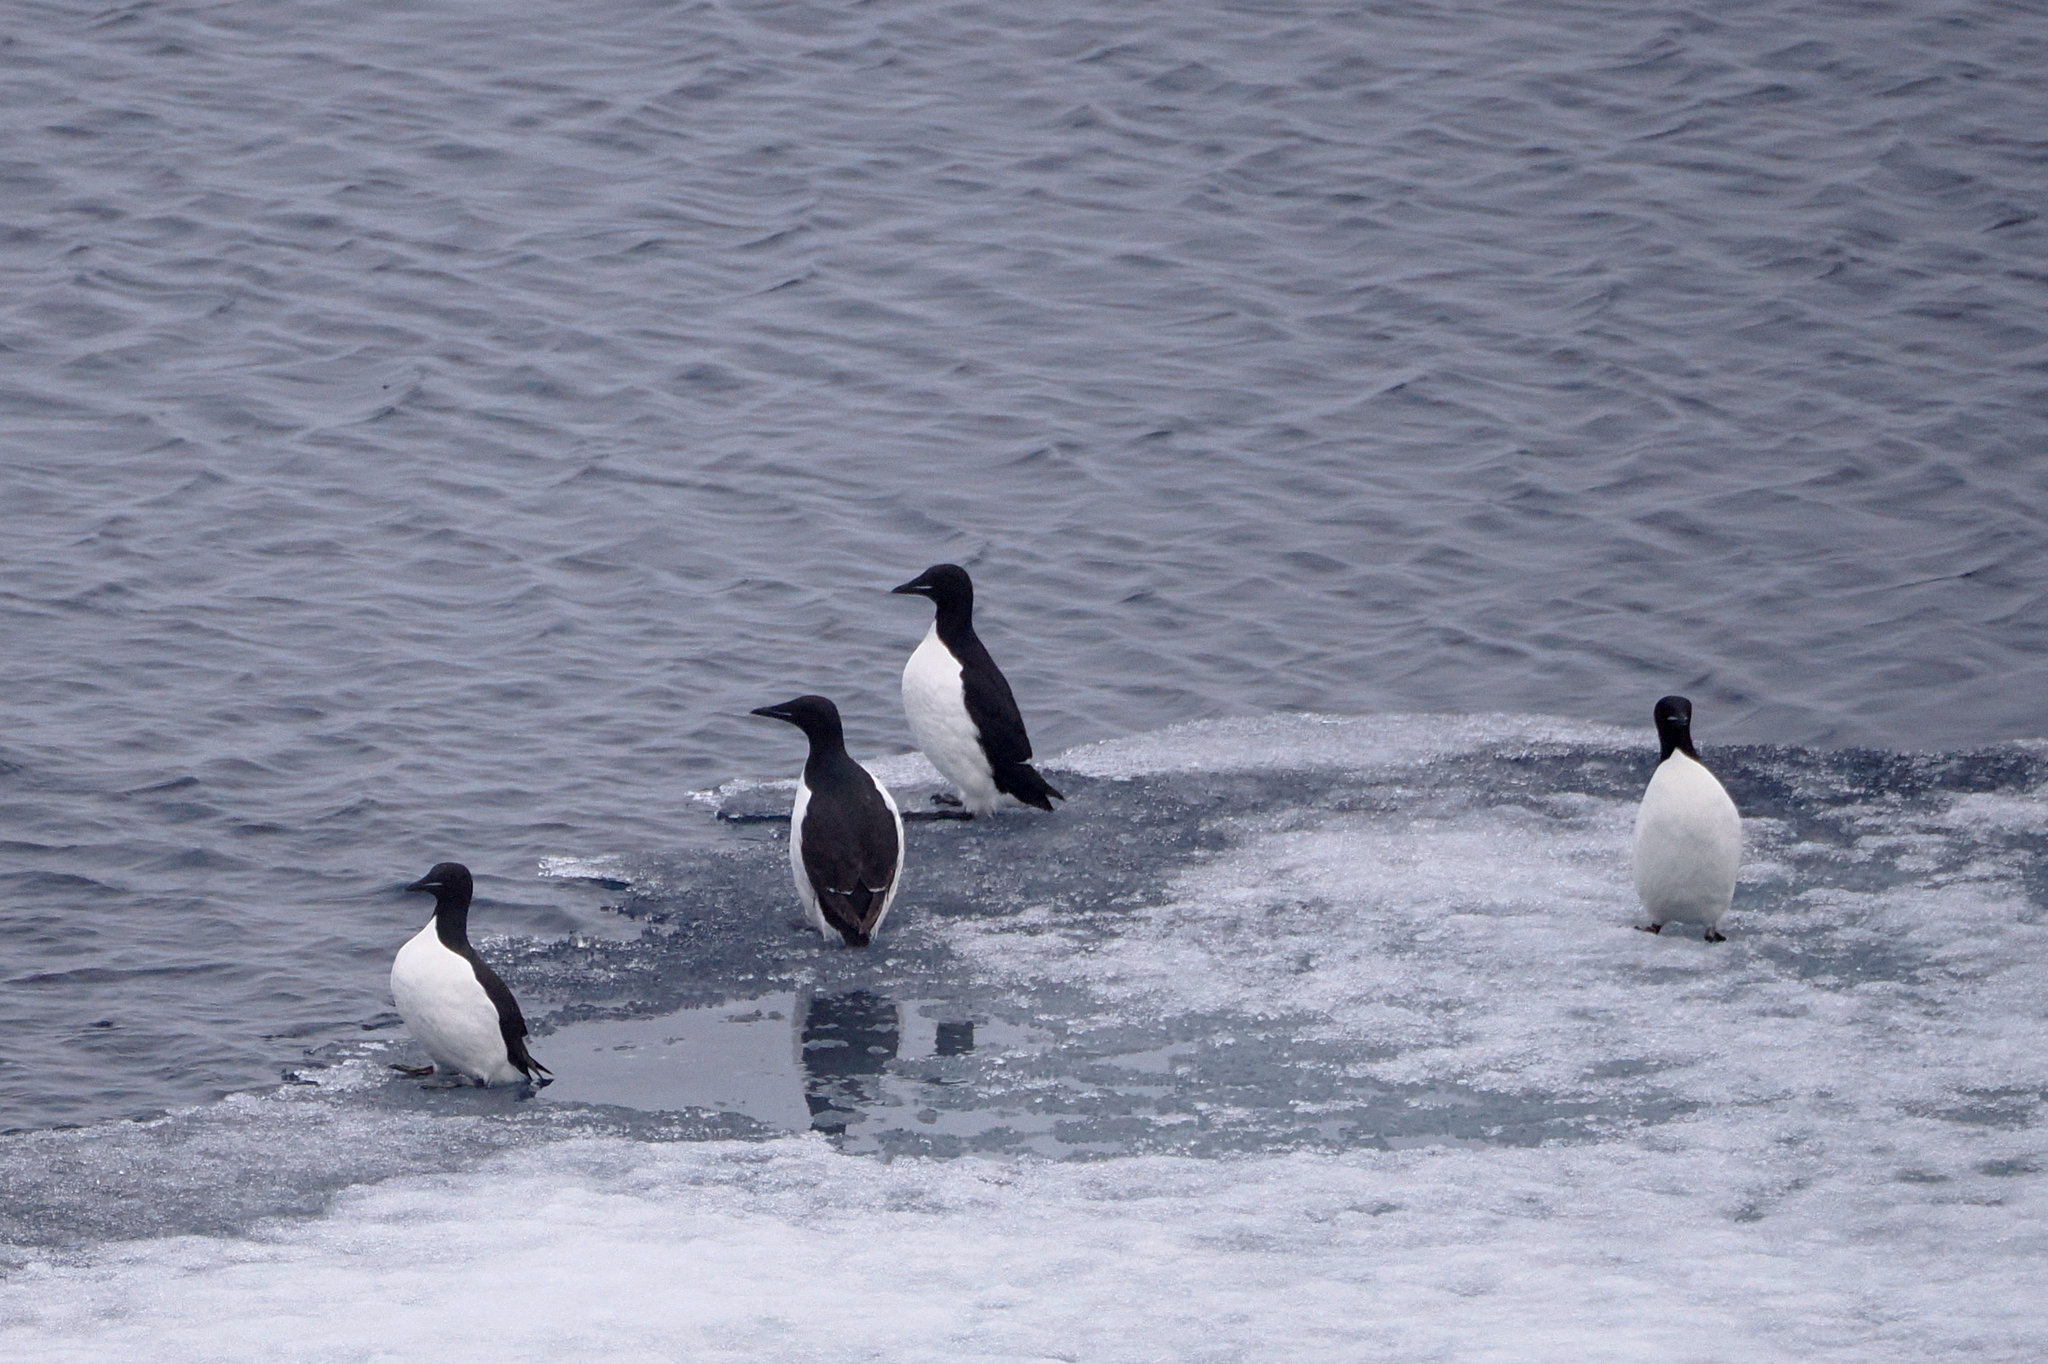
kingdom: Animalia
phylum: Chordata
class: Aves
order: Charadriiformes
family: Alcidae
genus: Uria
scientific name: Uria lomvia
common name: Thick-billed murre
